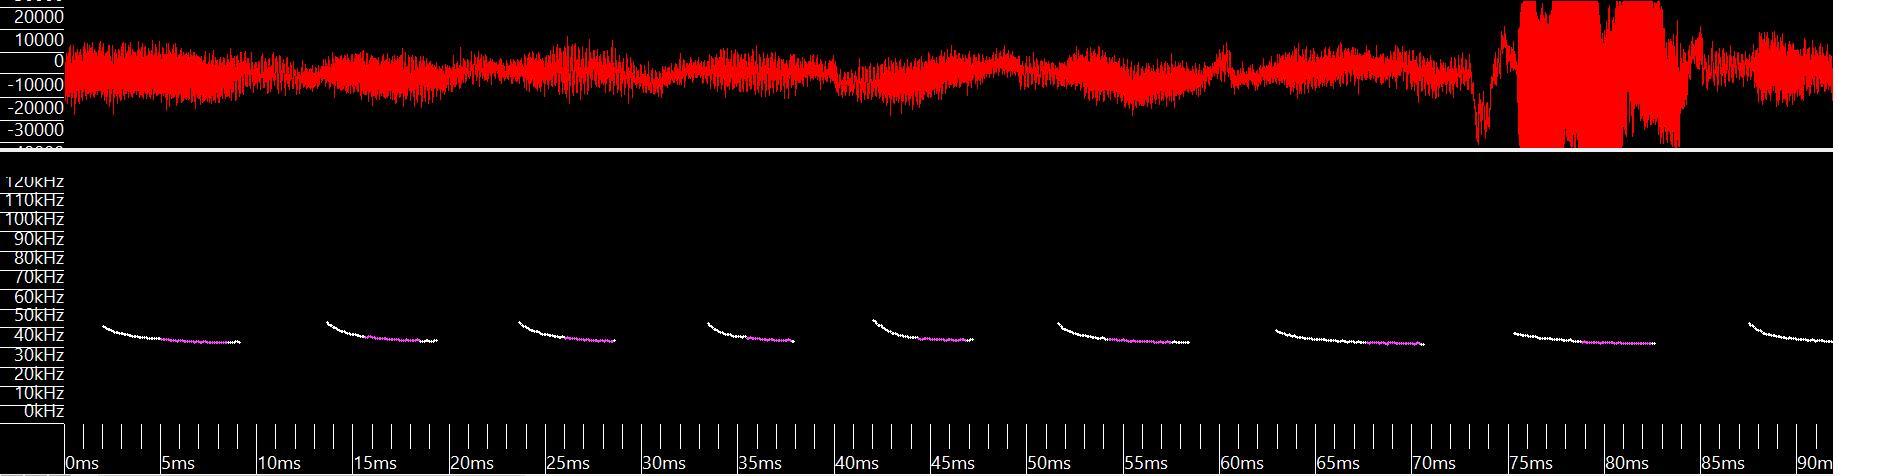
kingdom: Animalia
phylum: Chordata
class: Mammalia
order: Chiroptera
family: Vespertilionidae
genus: Perimyotis
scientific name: Perimyotis subflavus
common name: Eastern pipistrelle
